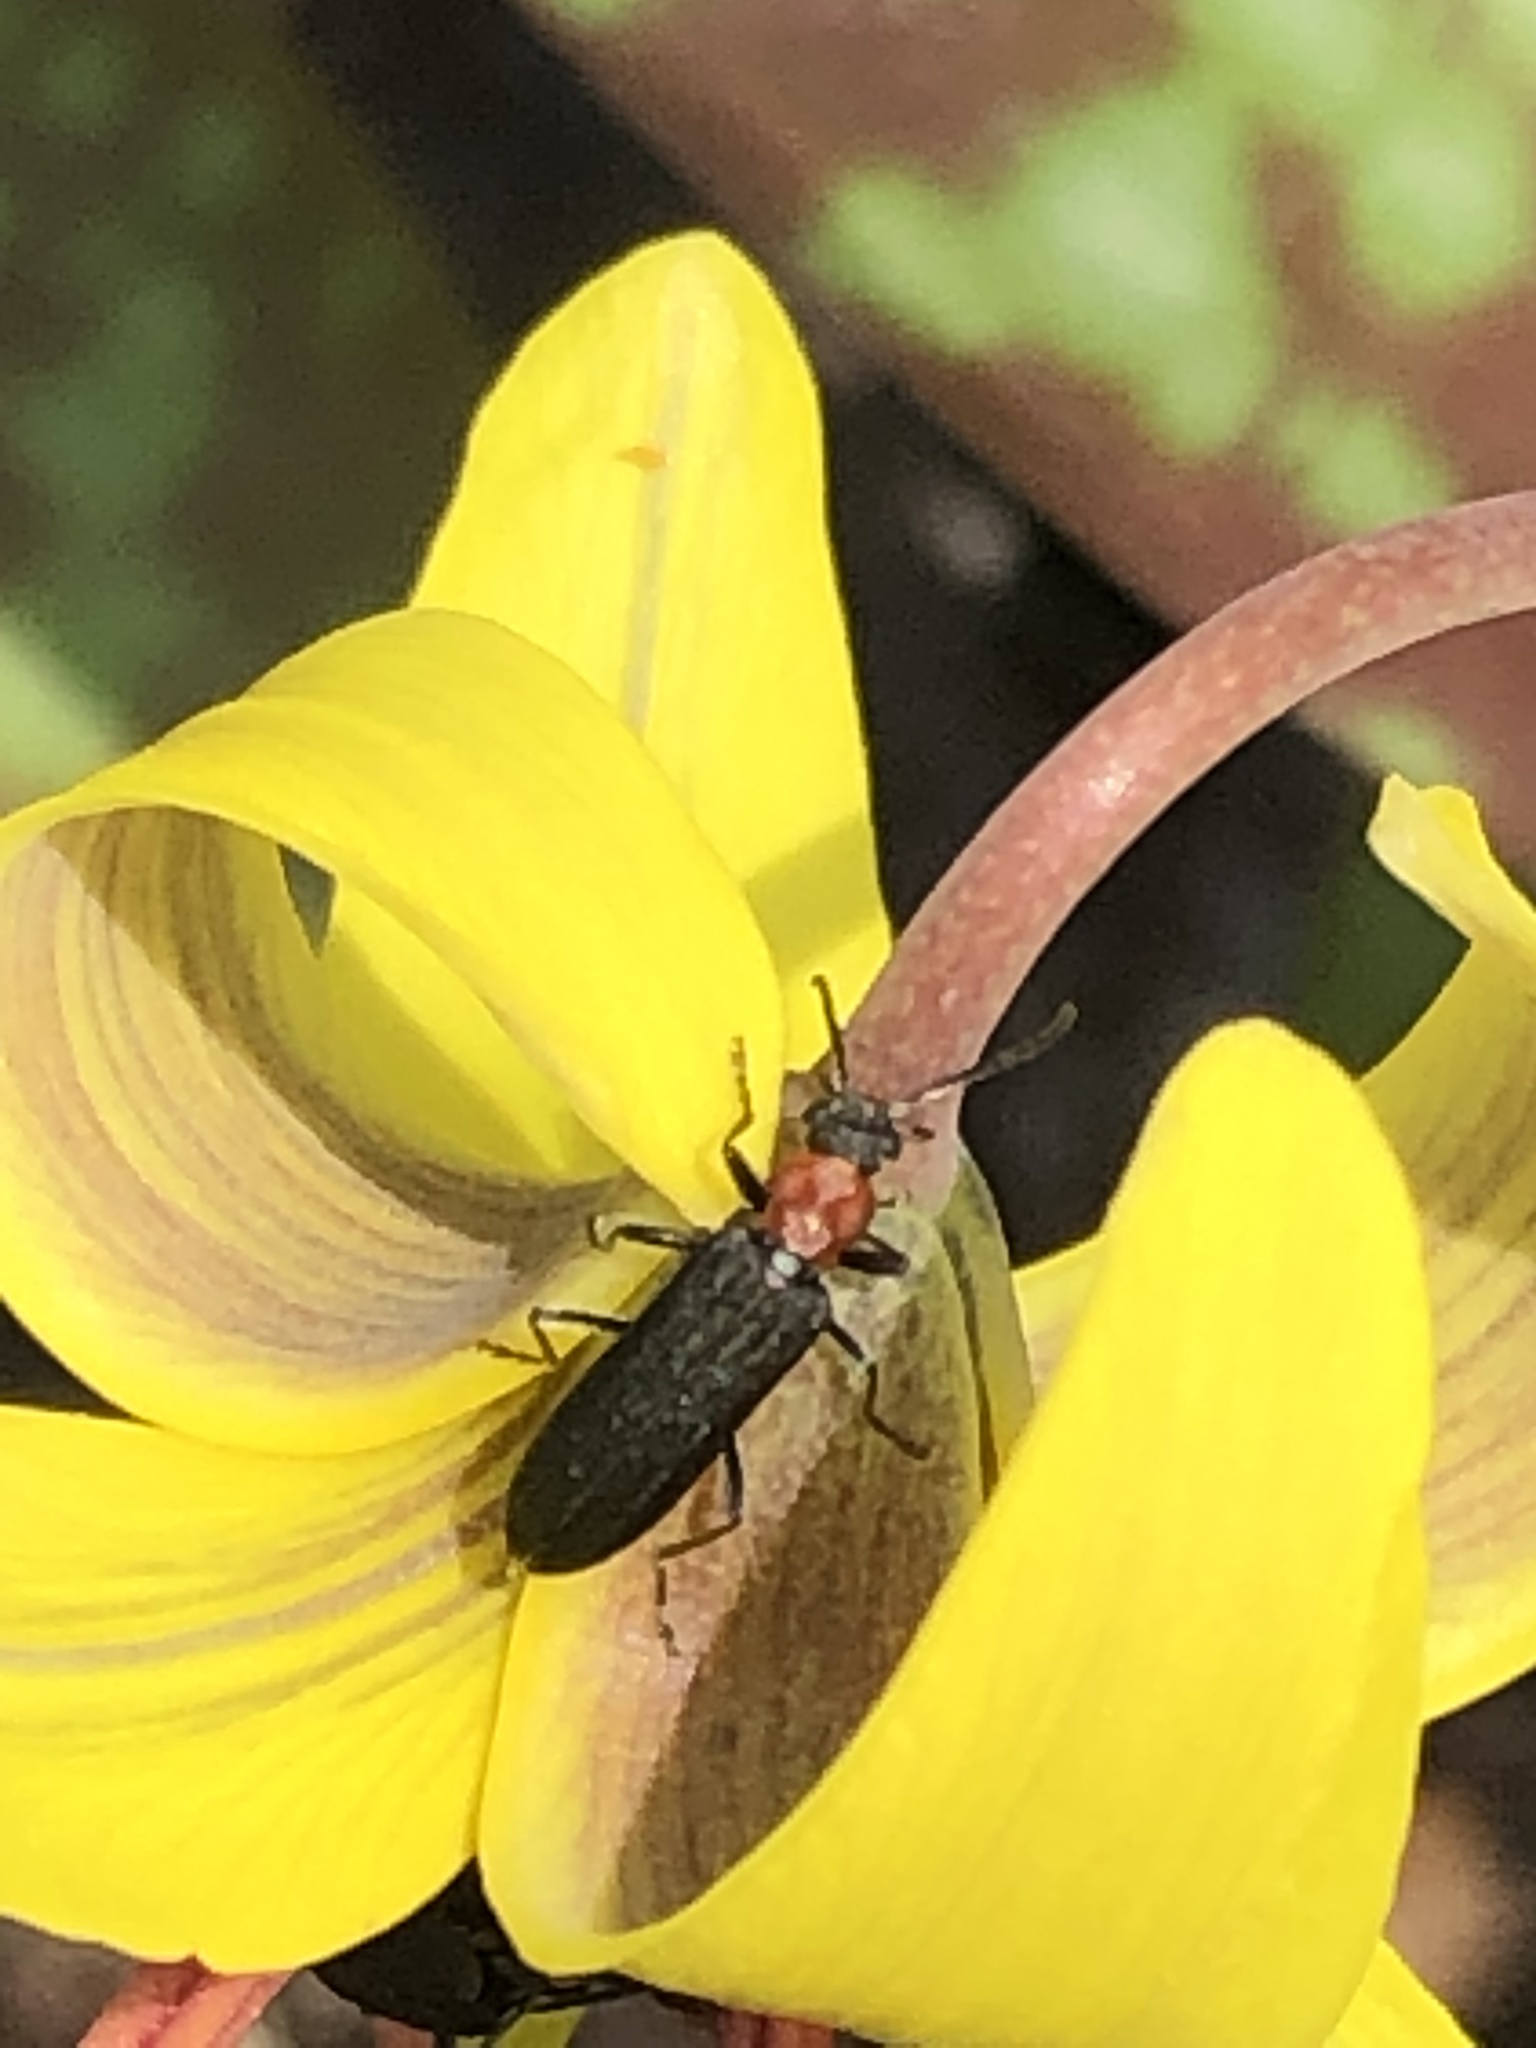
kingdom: Animalia
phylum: Arthropoda
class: Insecta
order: Coleoptera
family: Oedemeridae
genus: Ischnomera
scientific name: Ischnomera
